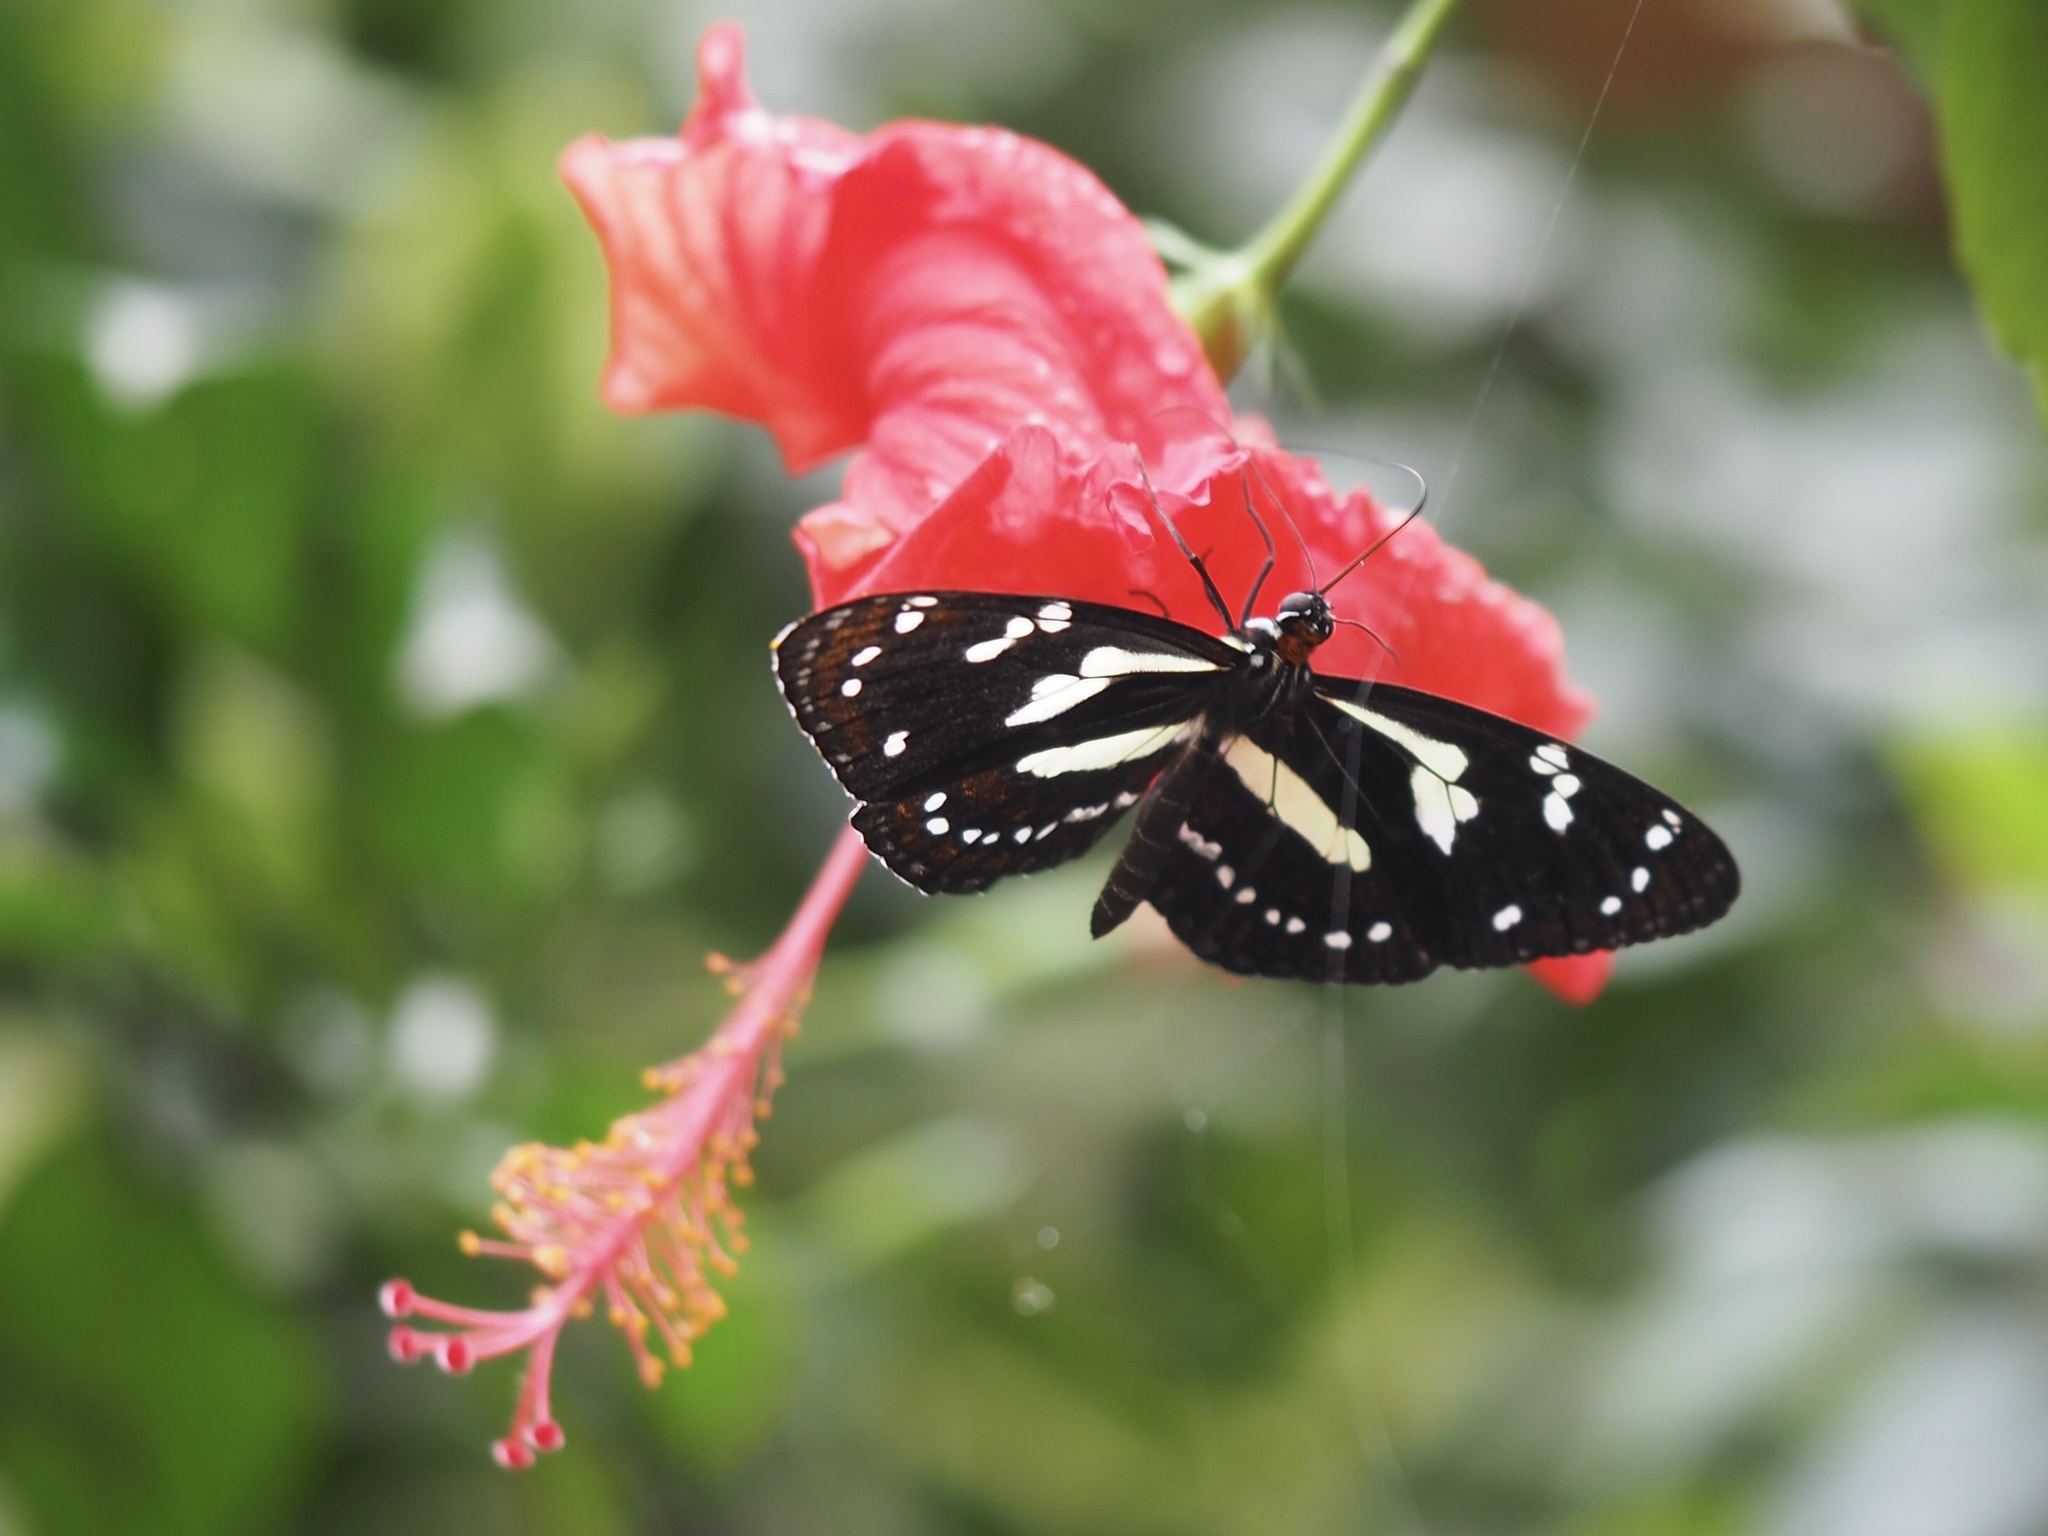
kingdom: Animalia
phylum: Arthropoda
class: Insecta
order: Lepidoptera
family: Nymphalidae
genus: Elzunia
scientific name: Elzunia pavonii
